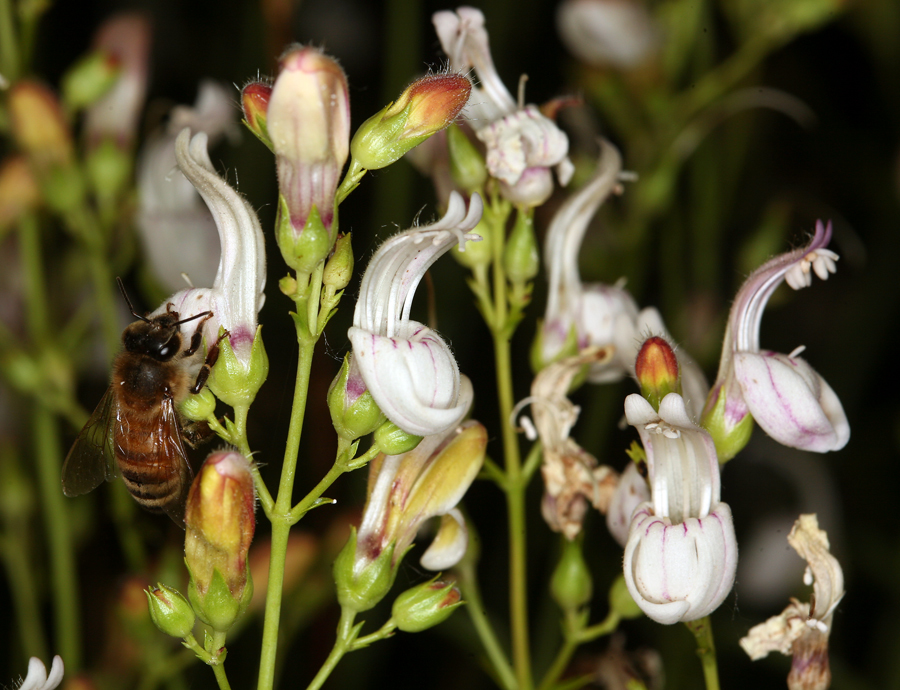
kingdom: Plantae
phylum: Tracheophyta
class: Magnoliopsida
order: Lamiales
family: Plantaginaceae
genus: Keckiella
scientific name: Keckiella breviflora
